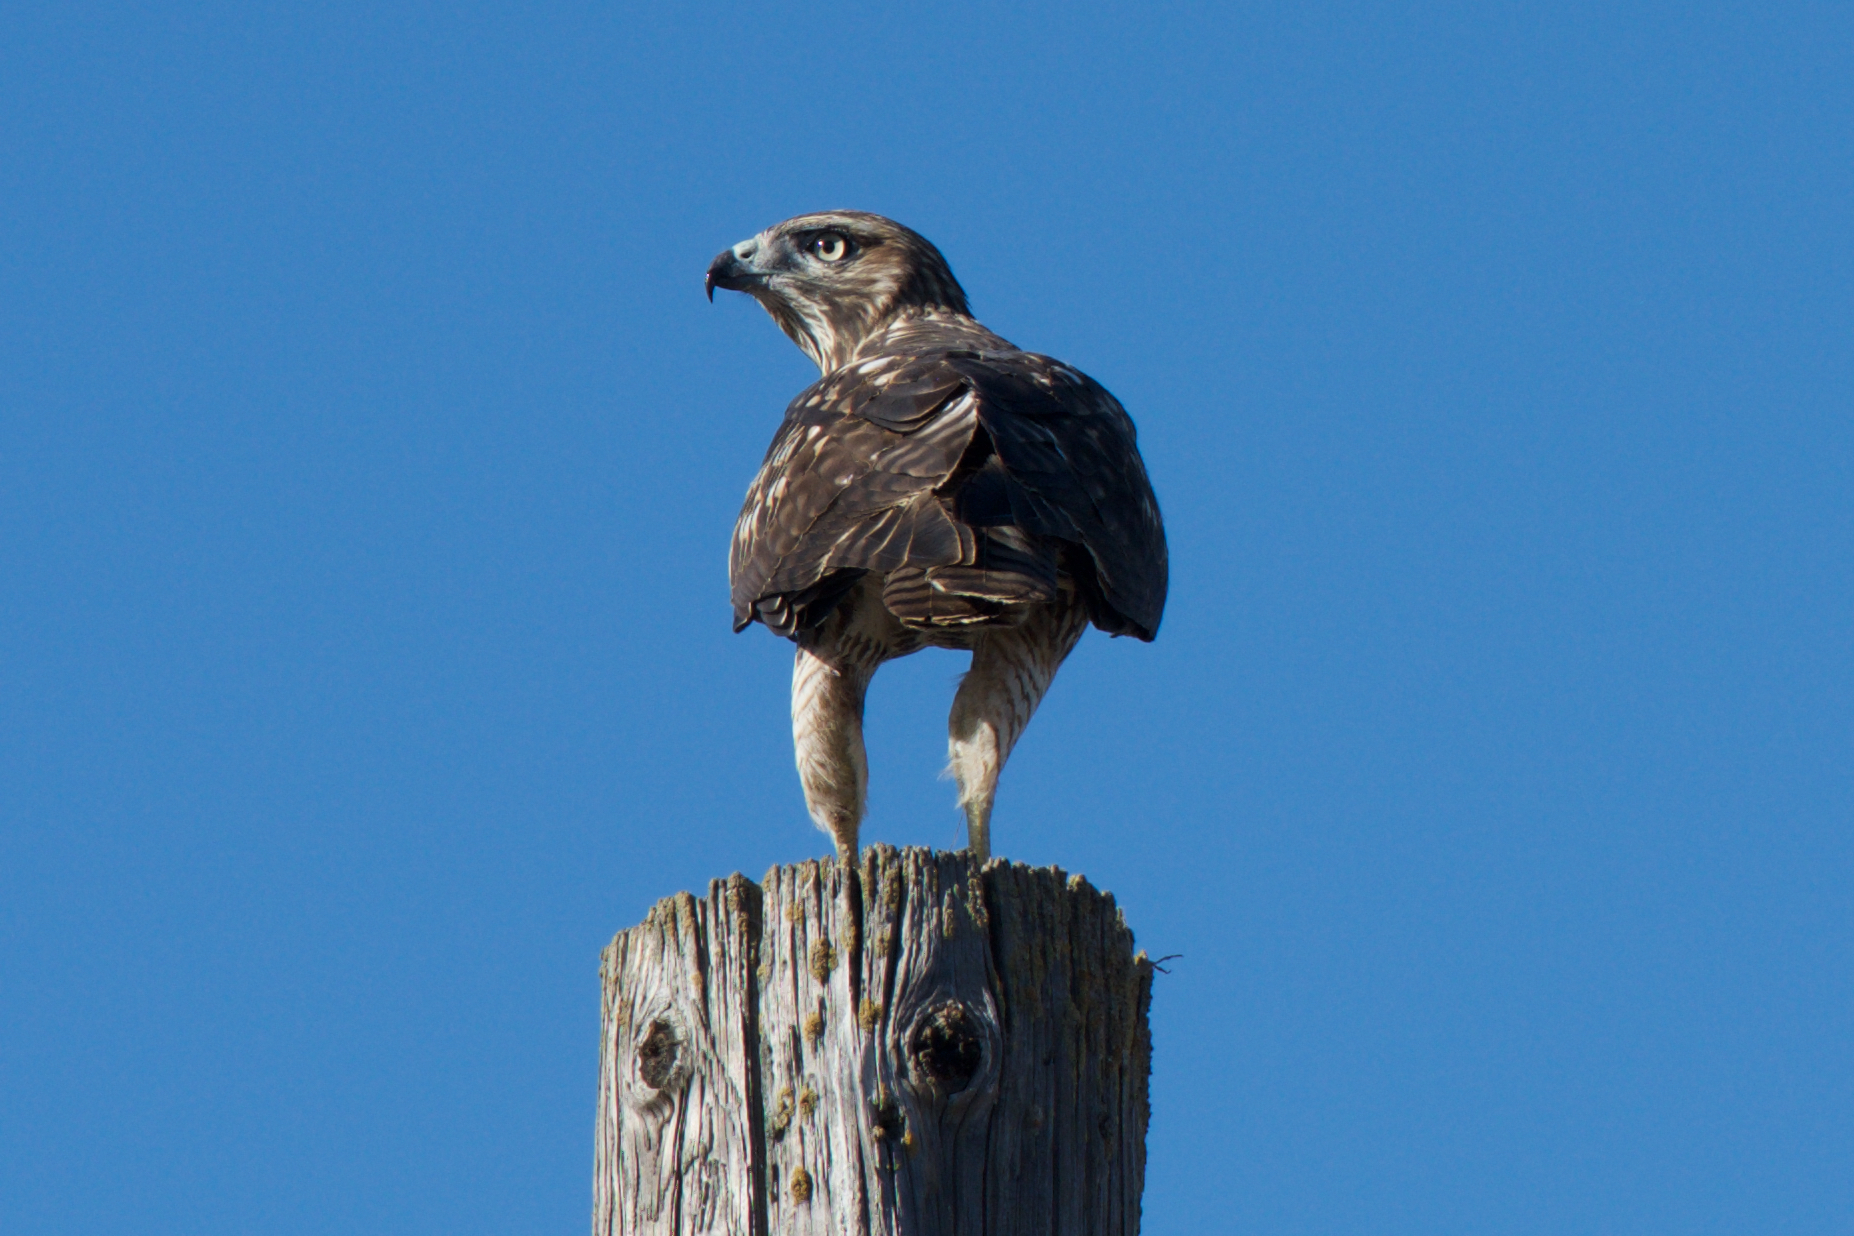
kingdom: Animalia
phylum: Chordata
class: Aves
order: Accipitriformes
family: Accipitridae
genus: Buteo
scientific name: Buteo jamaicensis
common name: Red-tailed hawk
